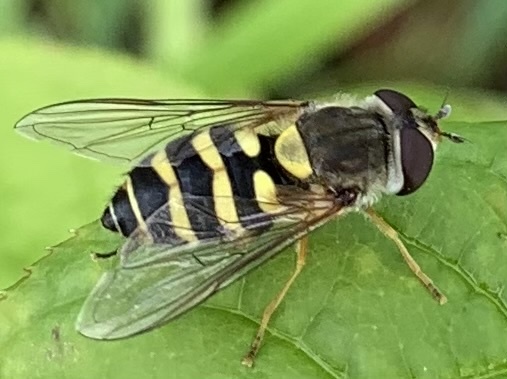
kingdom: Animalia
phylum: Arthropoda
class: Insecta
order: Diptera
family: Syrphidae
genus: Syrphus
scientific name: Syrphus
